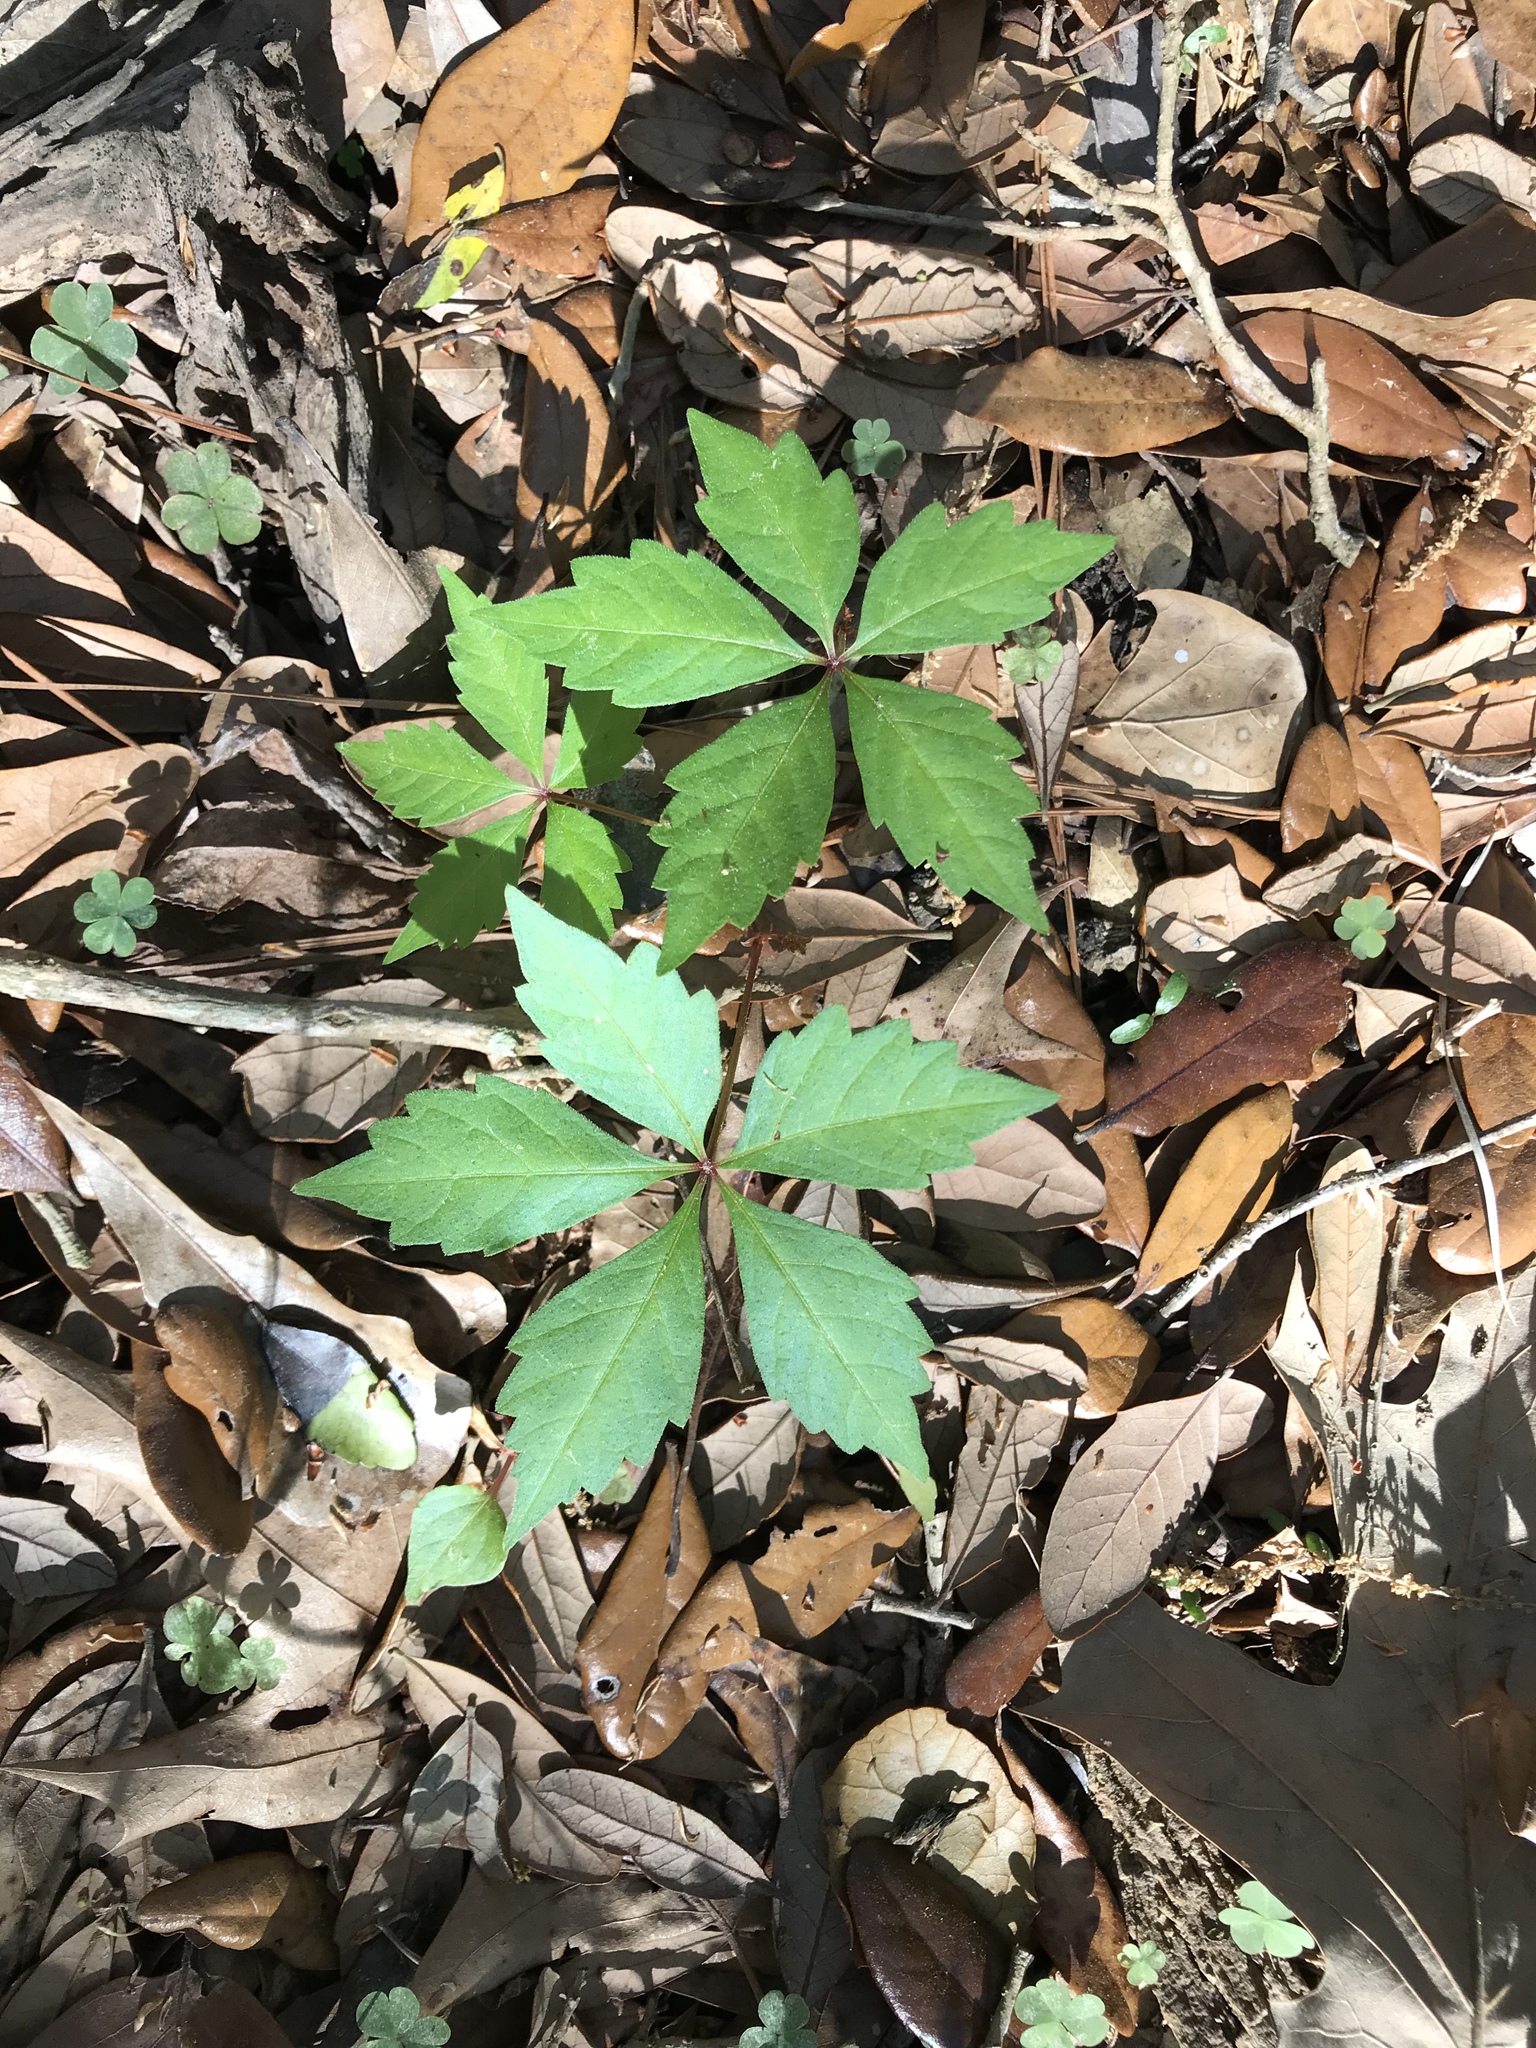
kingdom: Plantae
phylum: Tracheophyta
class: Magnoliopsida
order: Vitales
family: Vitaceae
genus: Parthenocissus
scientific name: Parthenocissus quinquefolia
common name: Virginia-creeper
